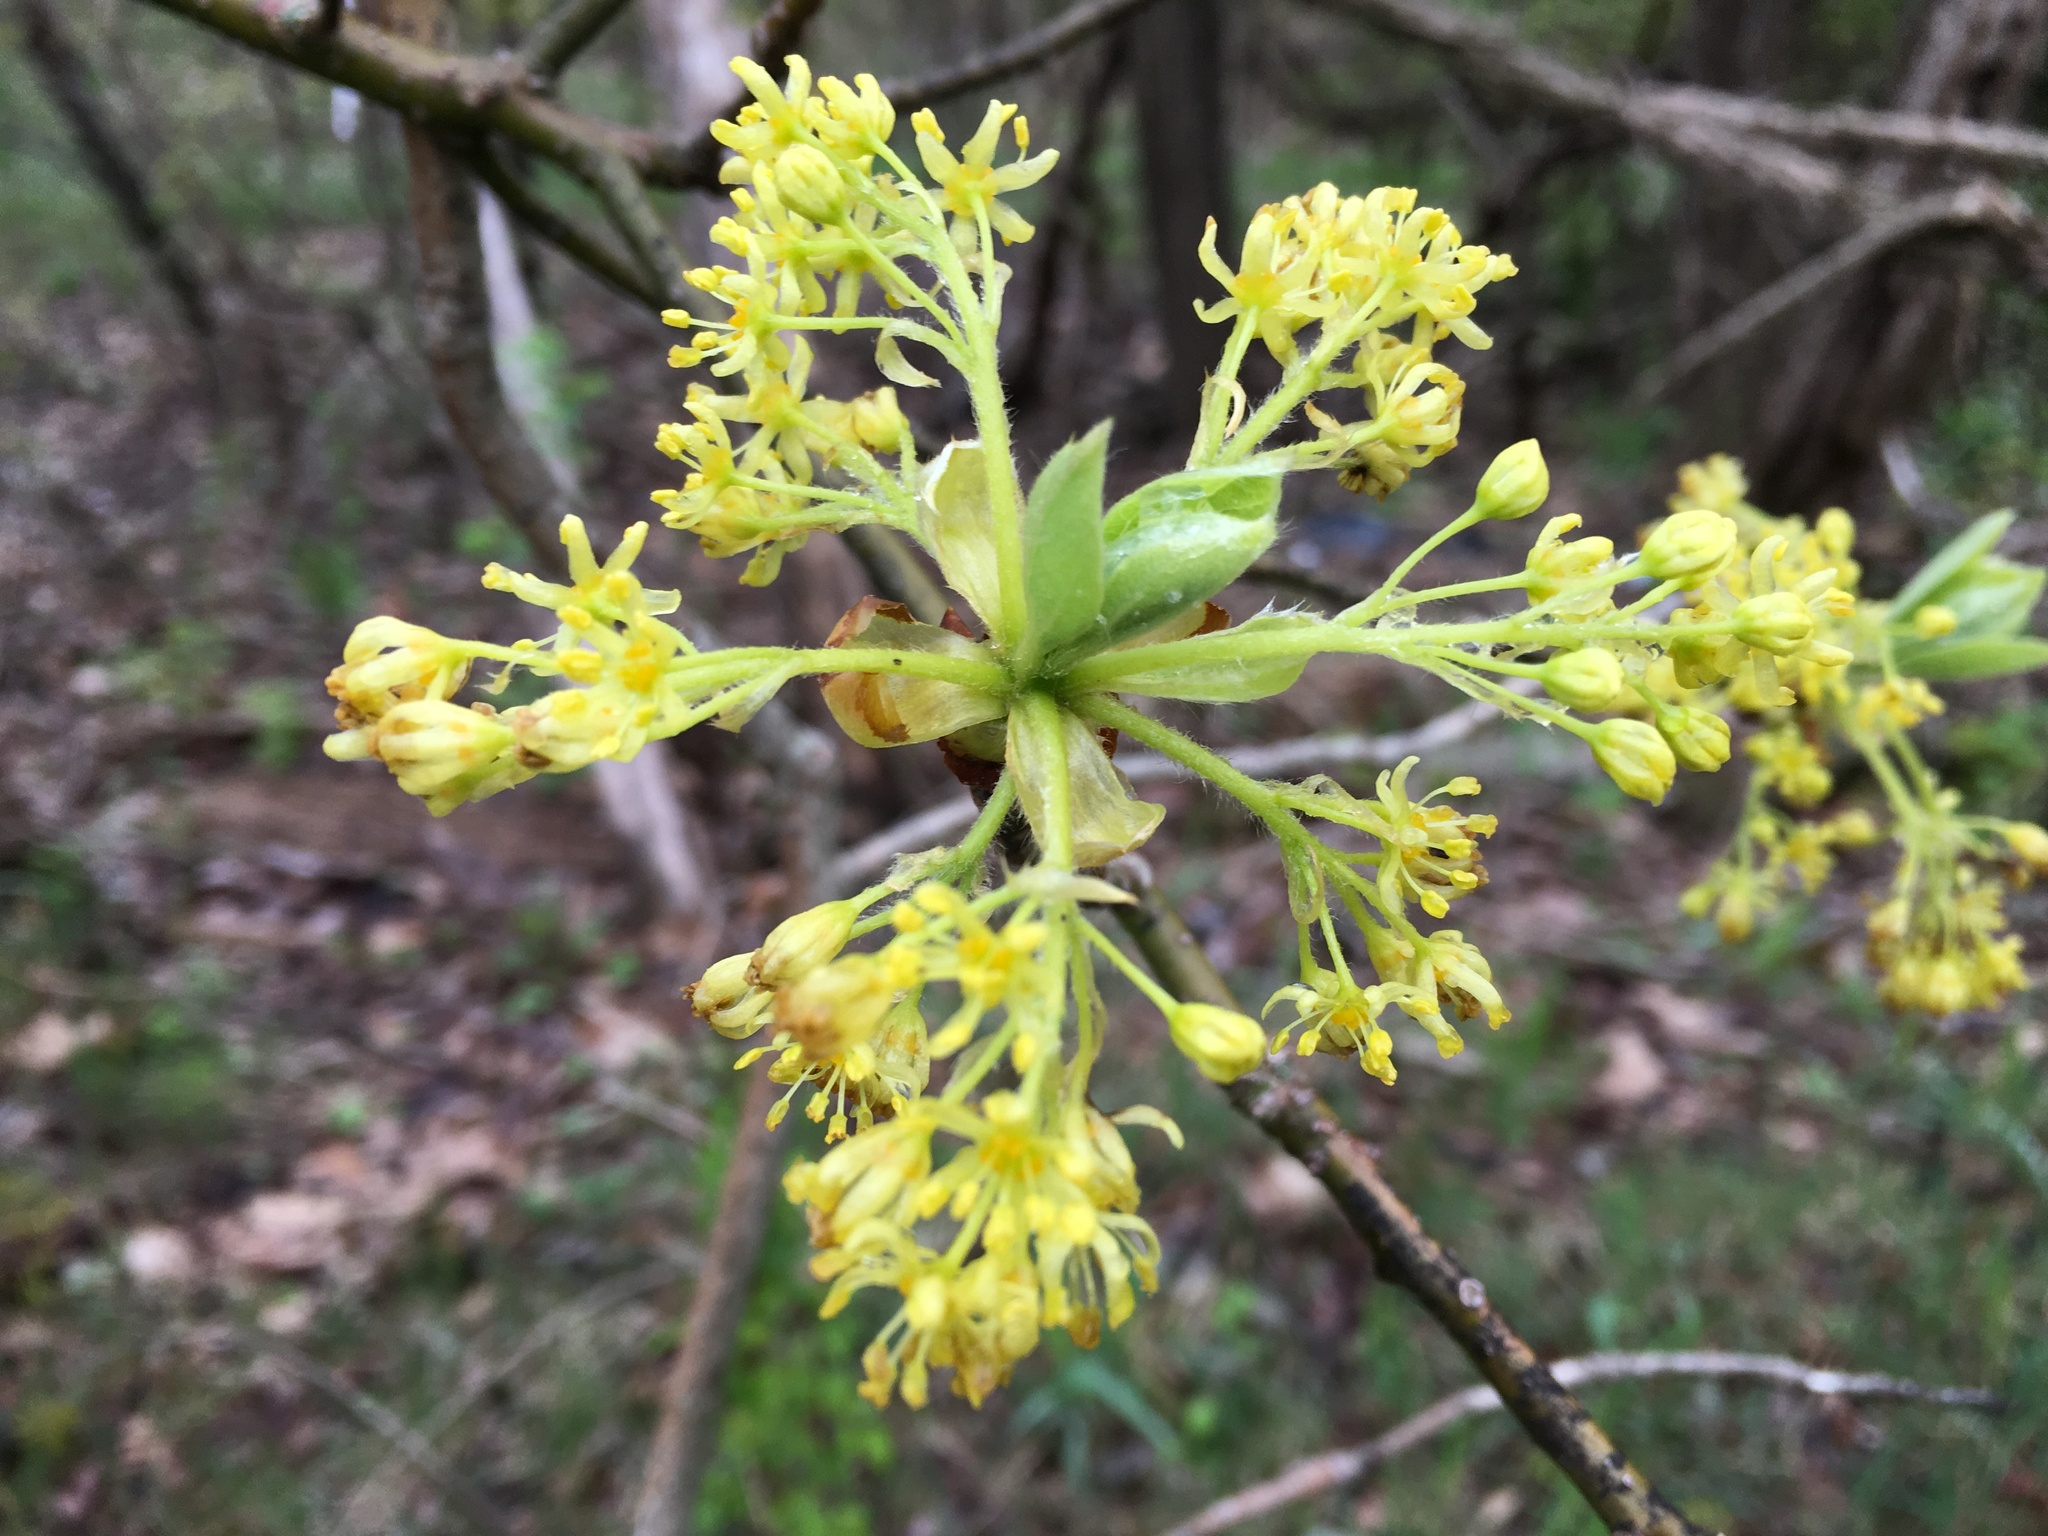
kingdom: Plantae
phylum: Tracheophyta
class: Magnoliopsida
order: Laurales
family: Lauraceae
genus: Sassafras
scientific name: Sassafras albidum
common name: Sassafras
